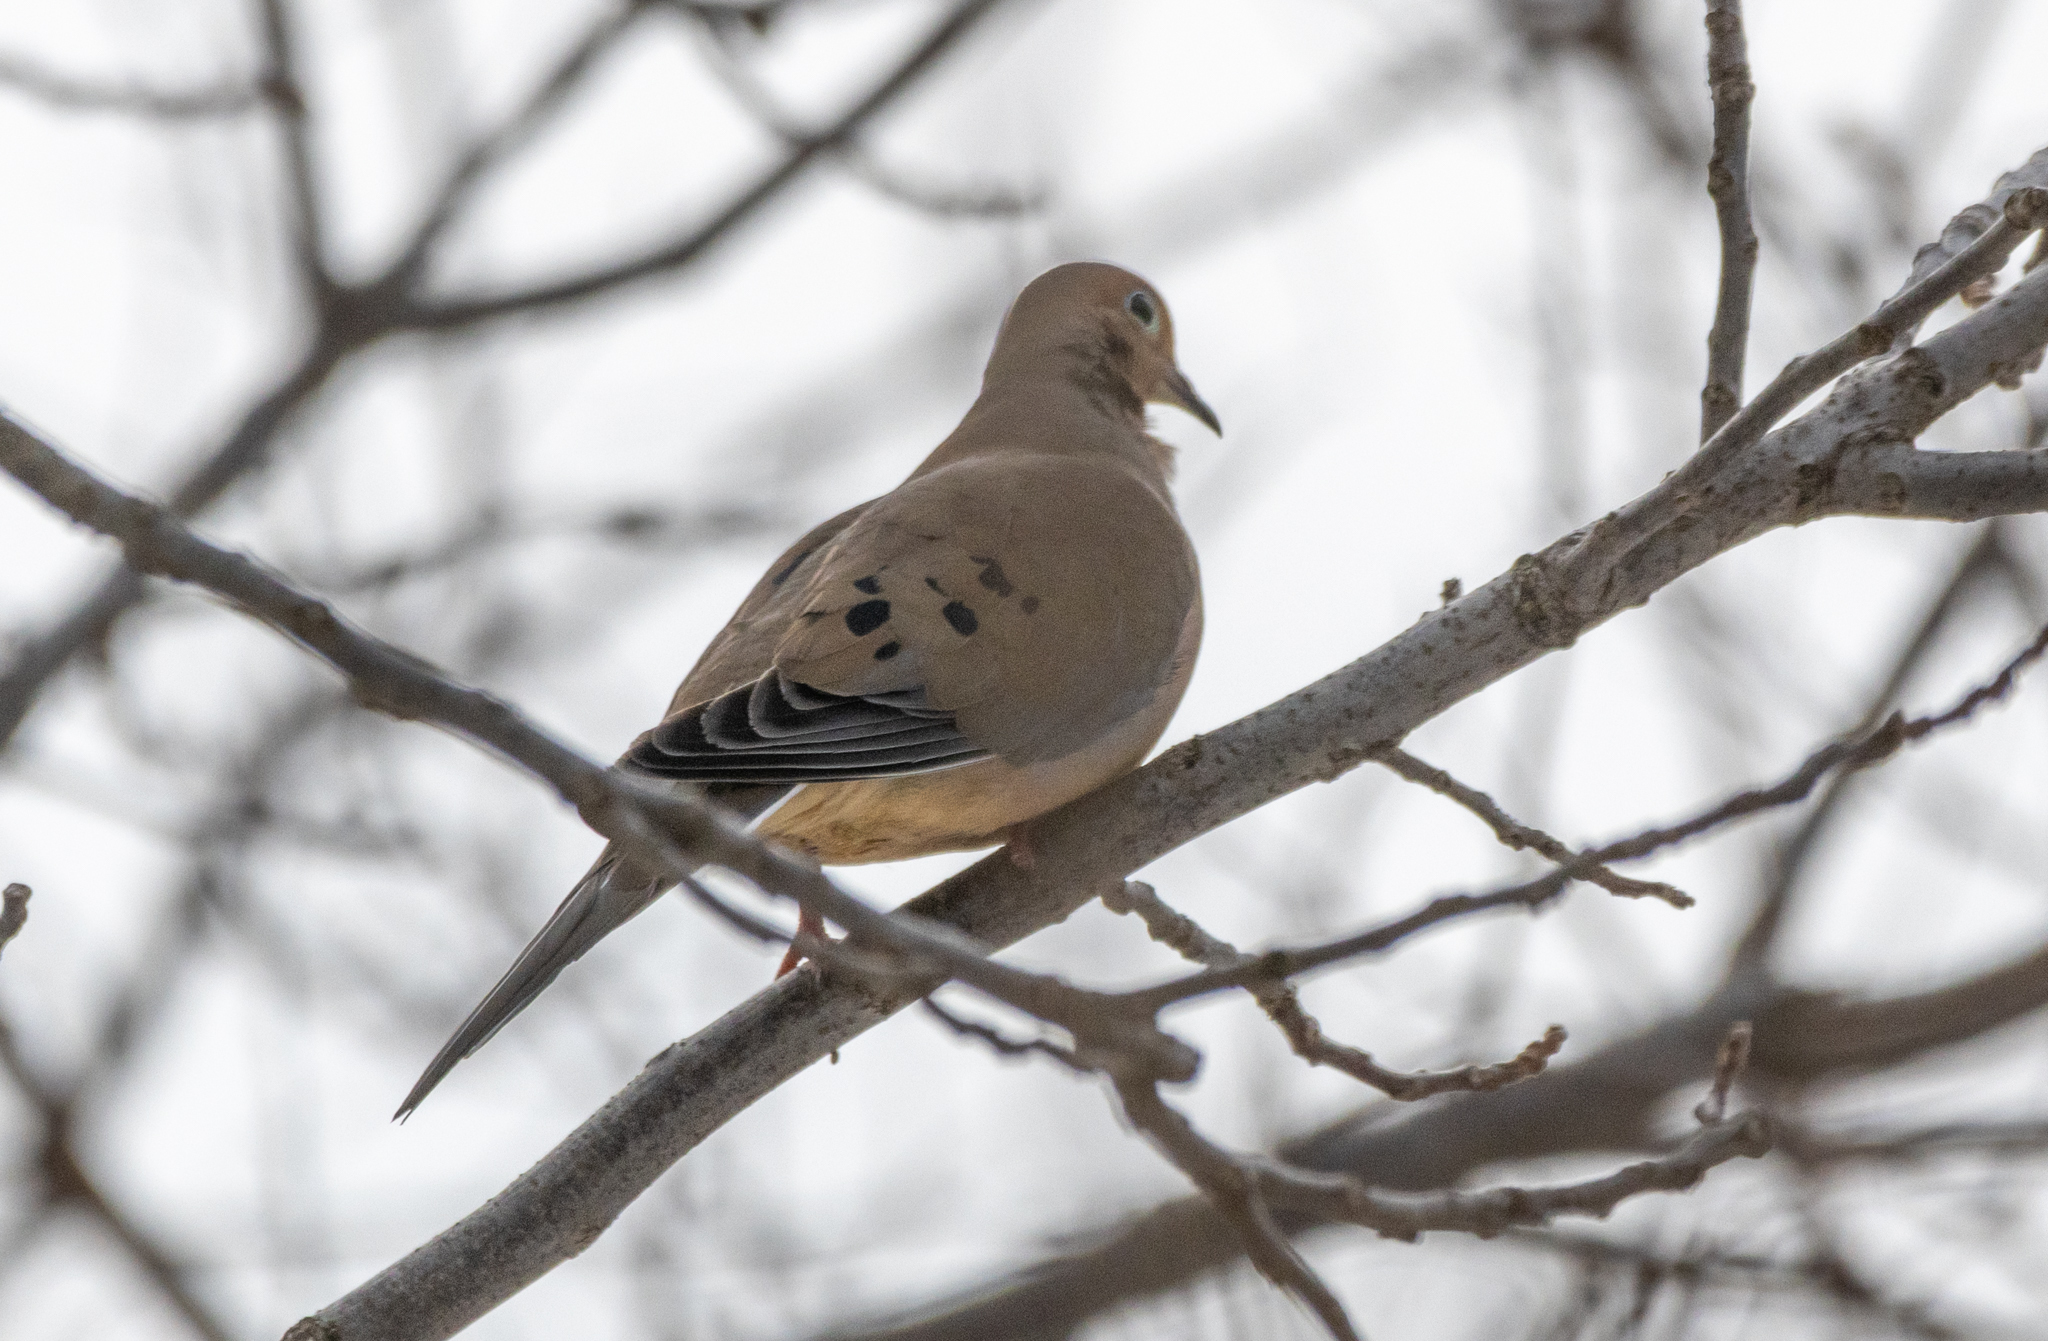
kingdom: Animalia
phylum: Chordata
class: Aves
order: Columbiformes
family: Columbidae
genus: Zenaida
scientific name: Zenaida macroura
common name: Mourning dove
